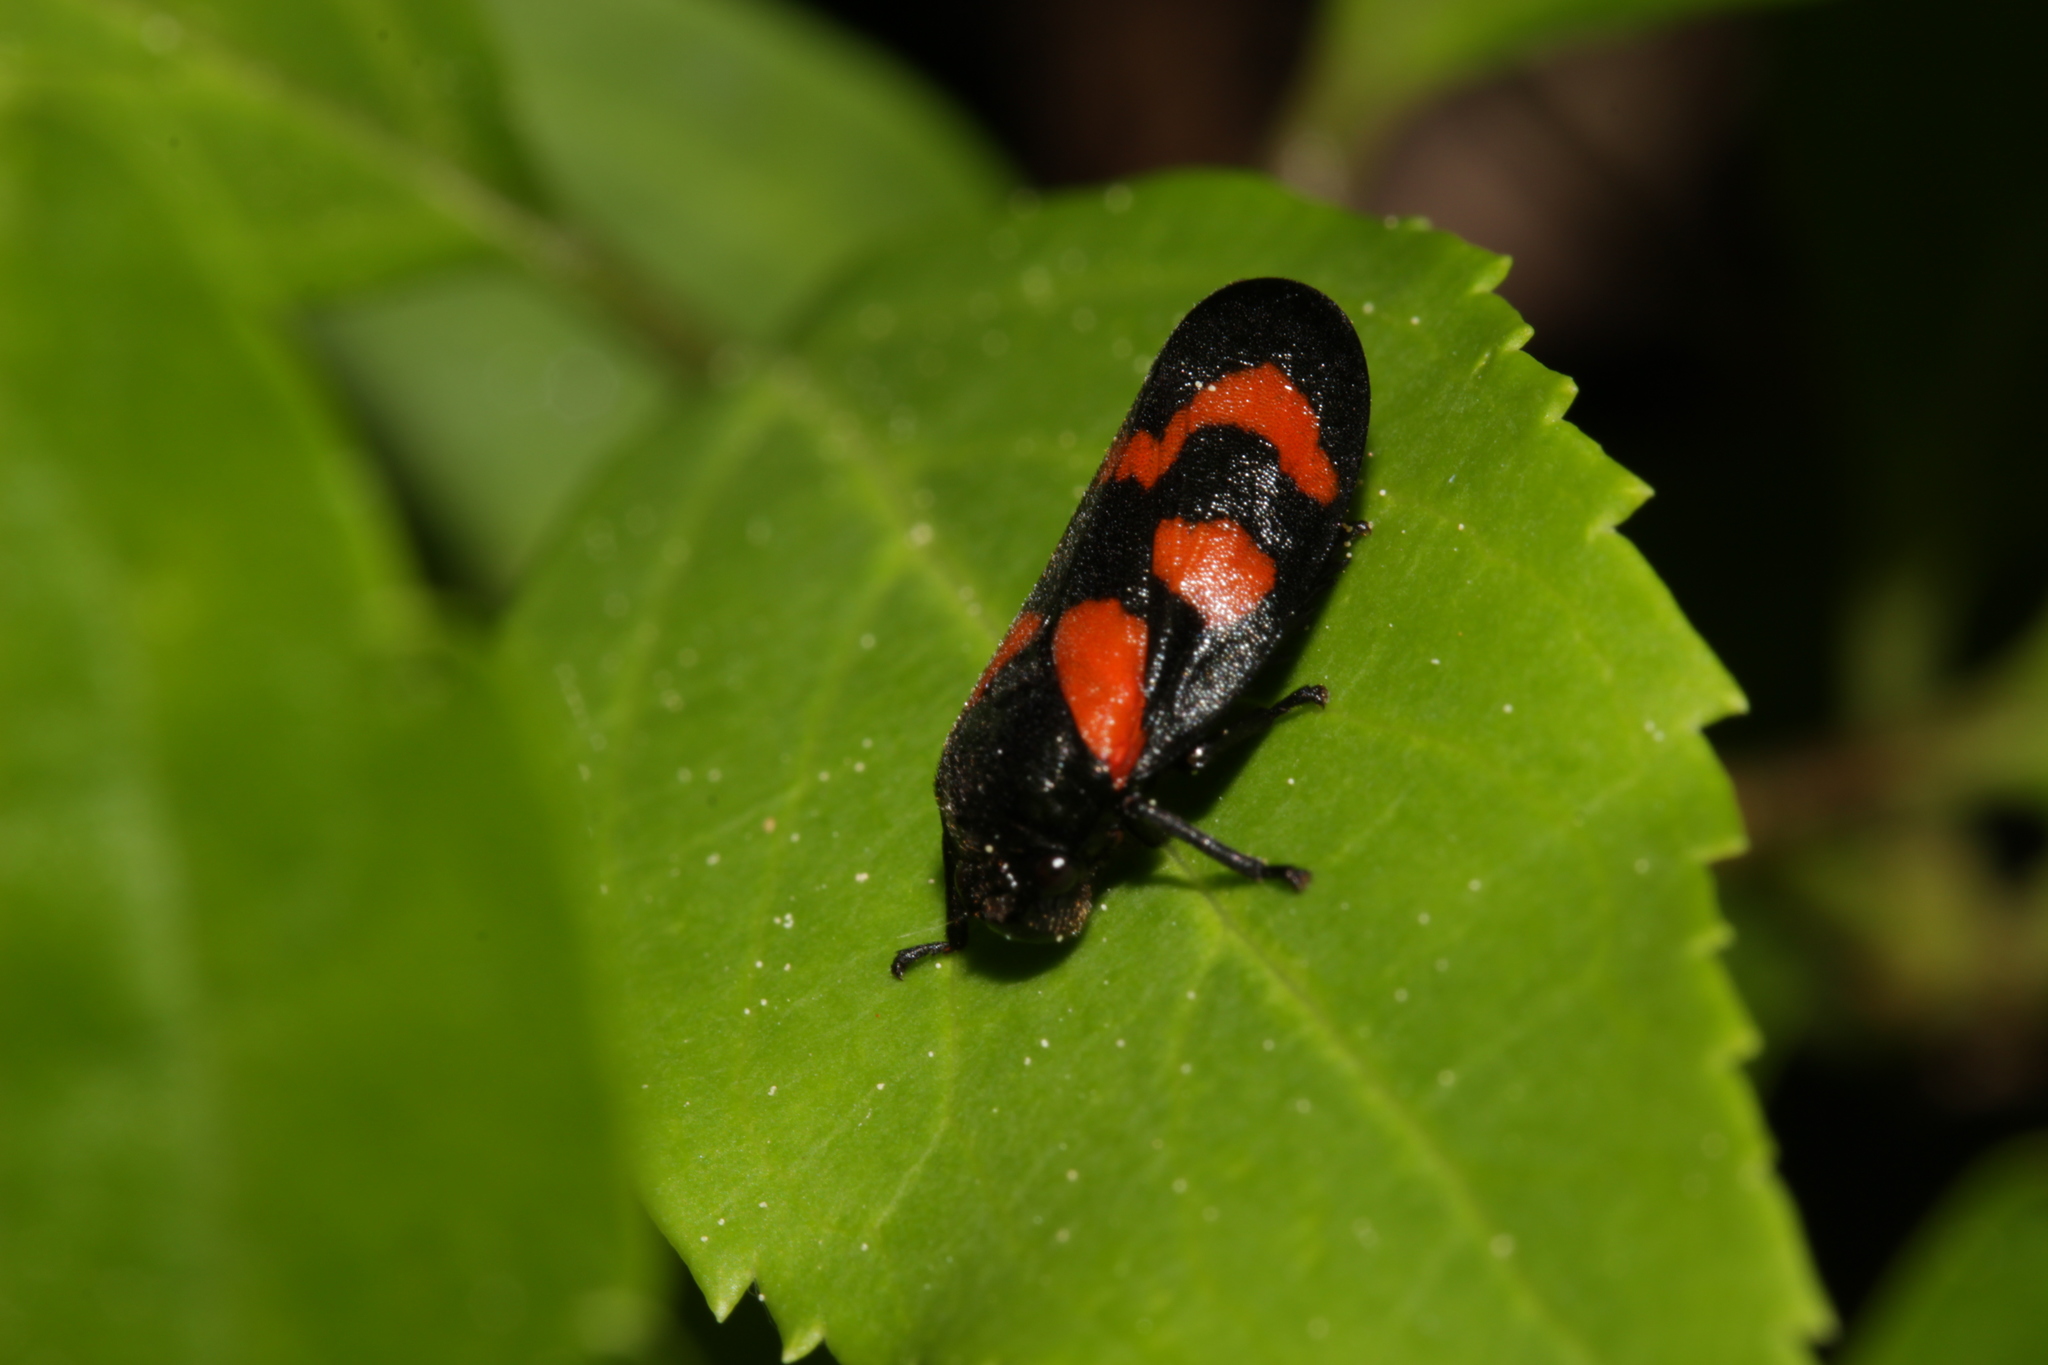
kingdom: Animalia
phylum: Arthropoda
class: Insecta
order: Hemiptera
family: Cercopidae
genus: Cercopis
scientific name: Cercopis vulnerata
